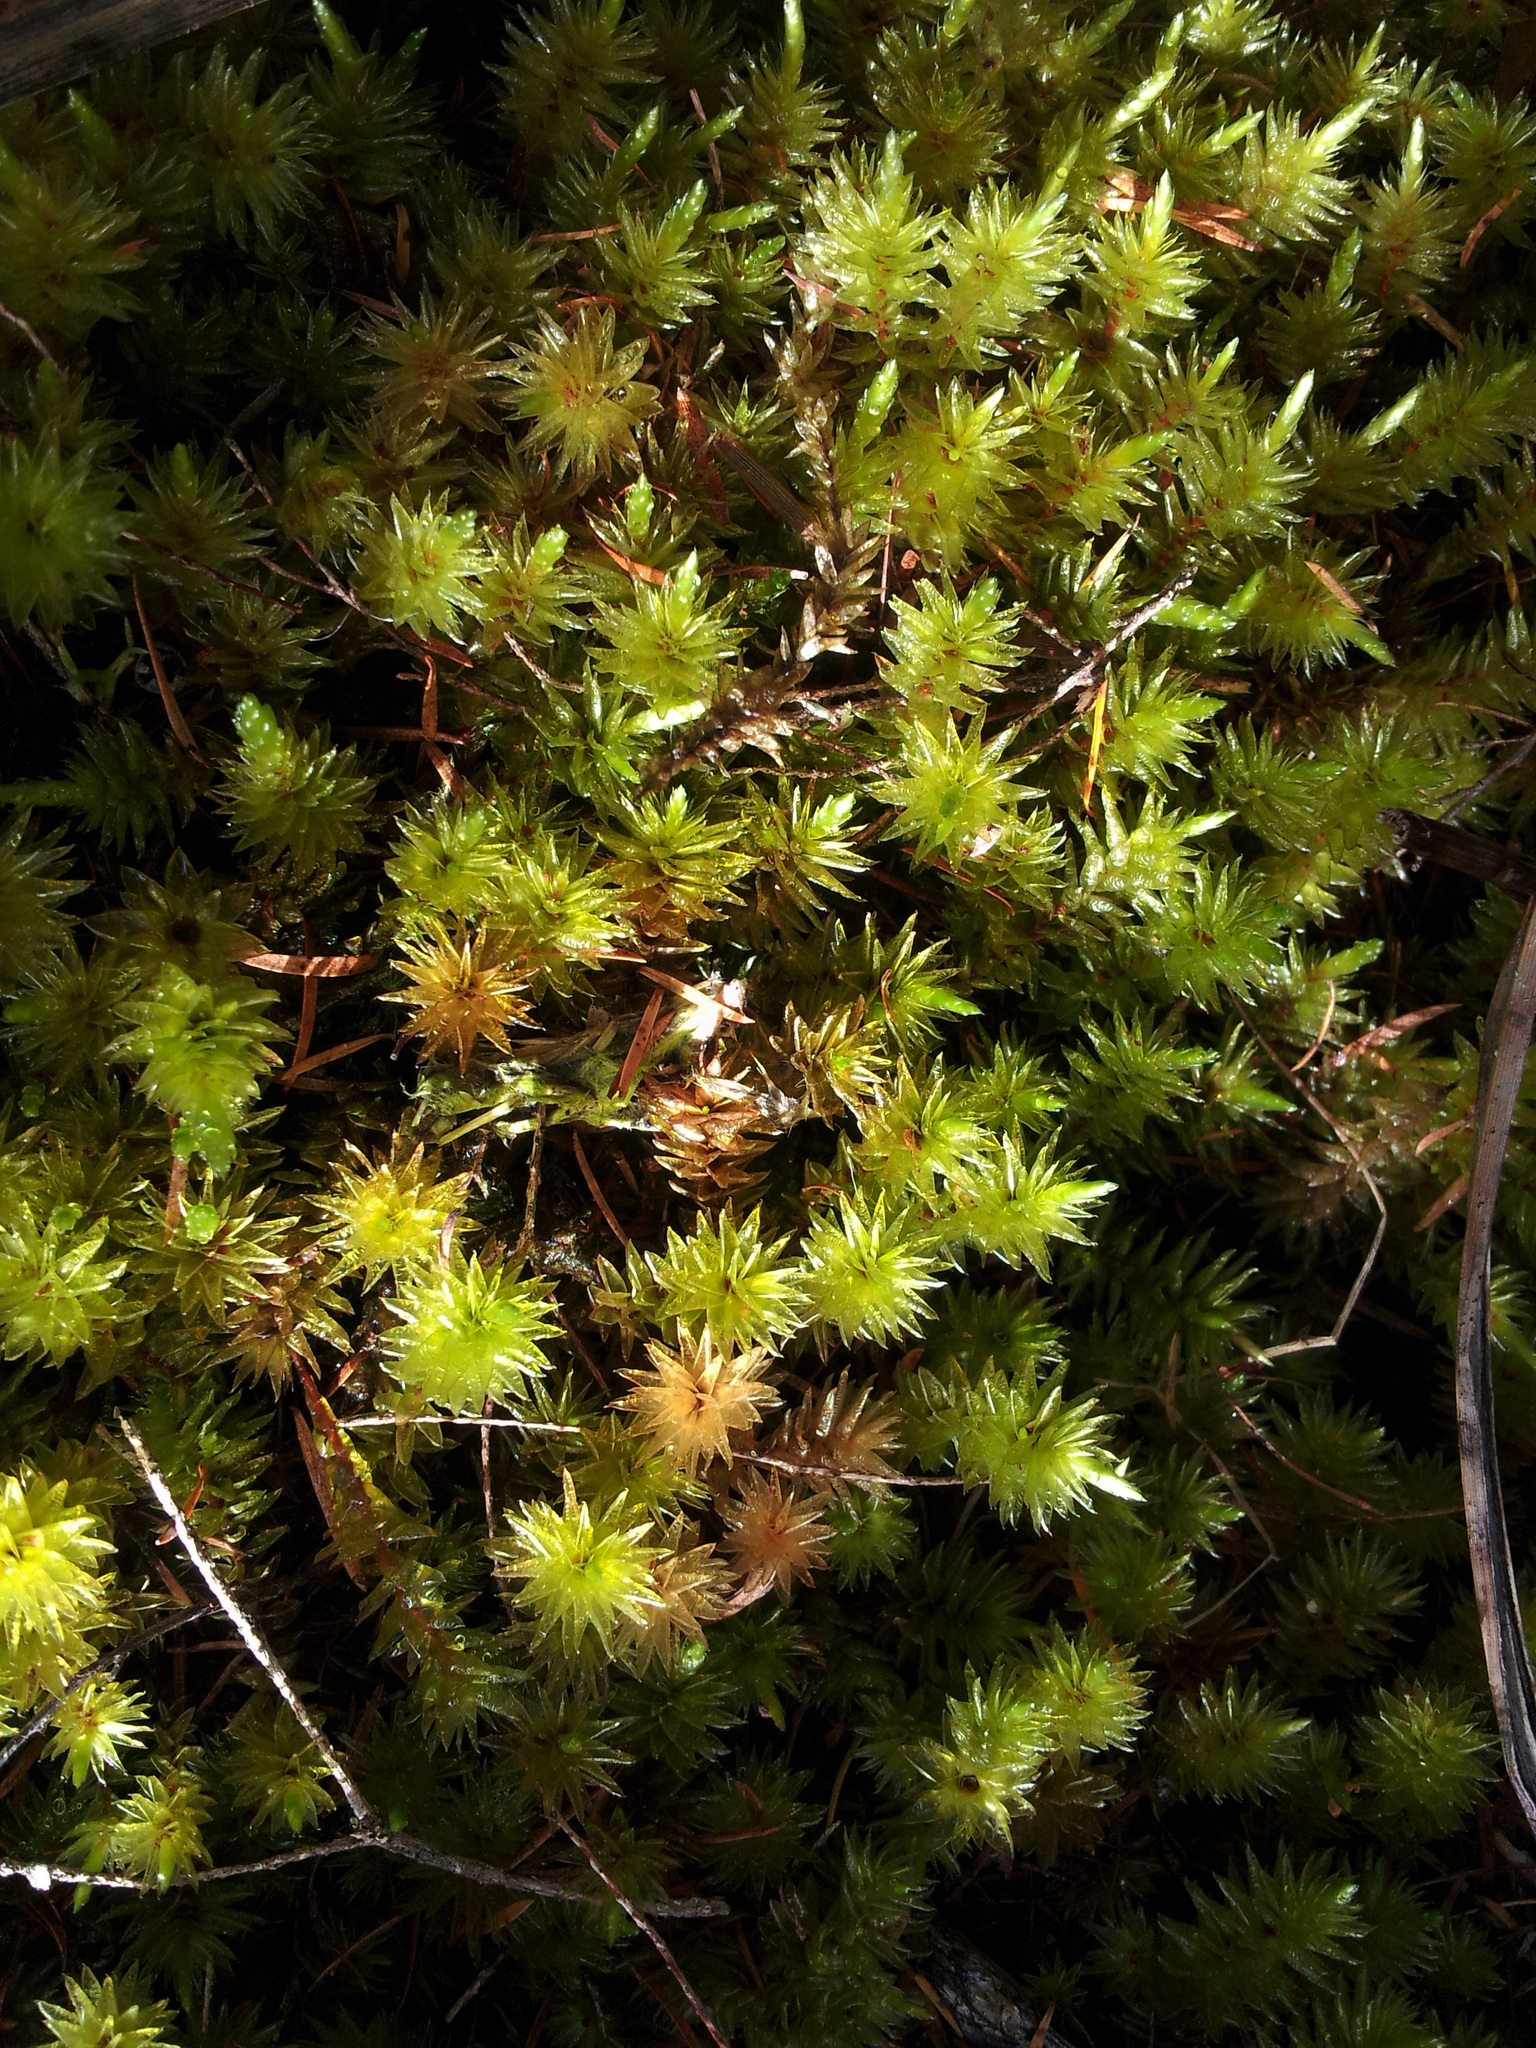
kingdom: Plantae
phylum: Bryophyta
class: Bryopsida
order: Bryales
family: Pulchrinodaceae
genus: Pulchrinodus
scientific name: Pulchrinodus inflatus
